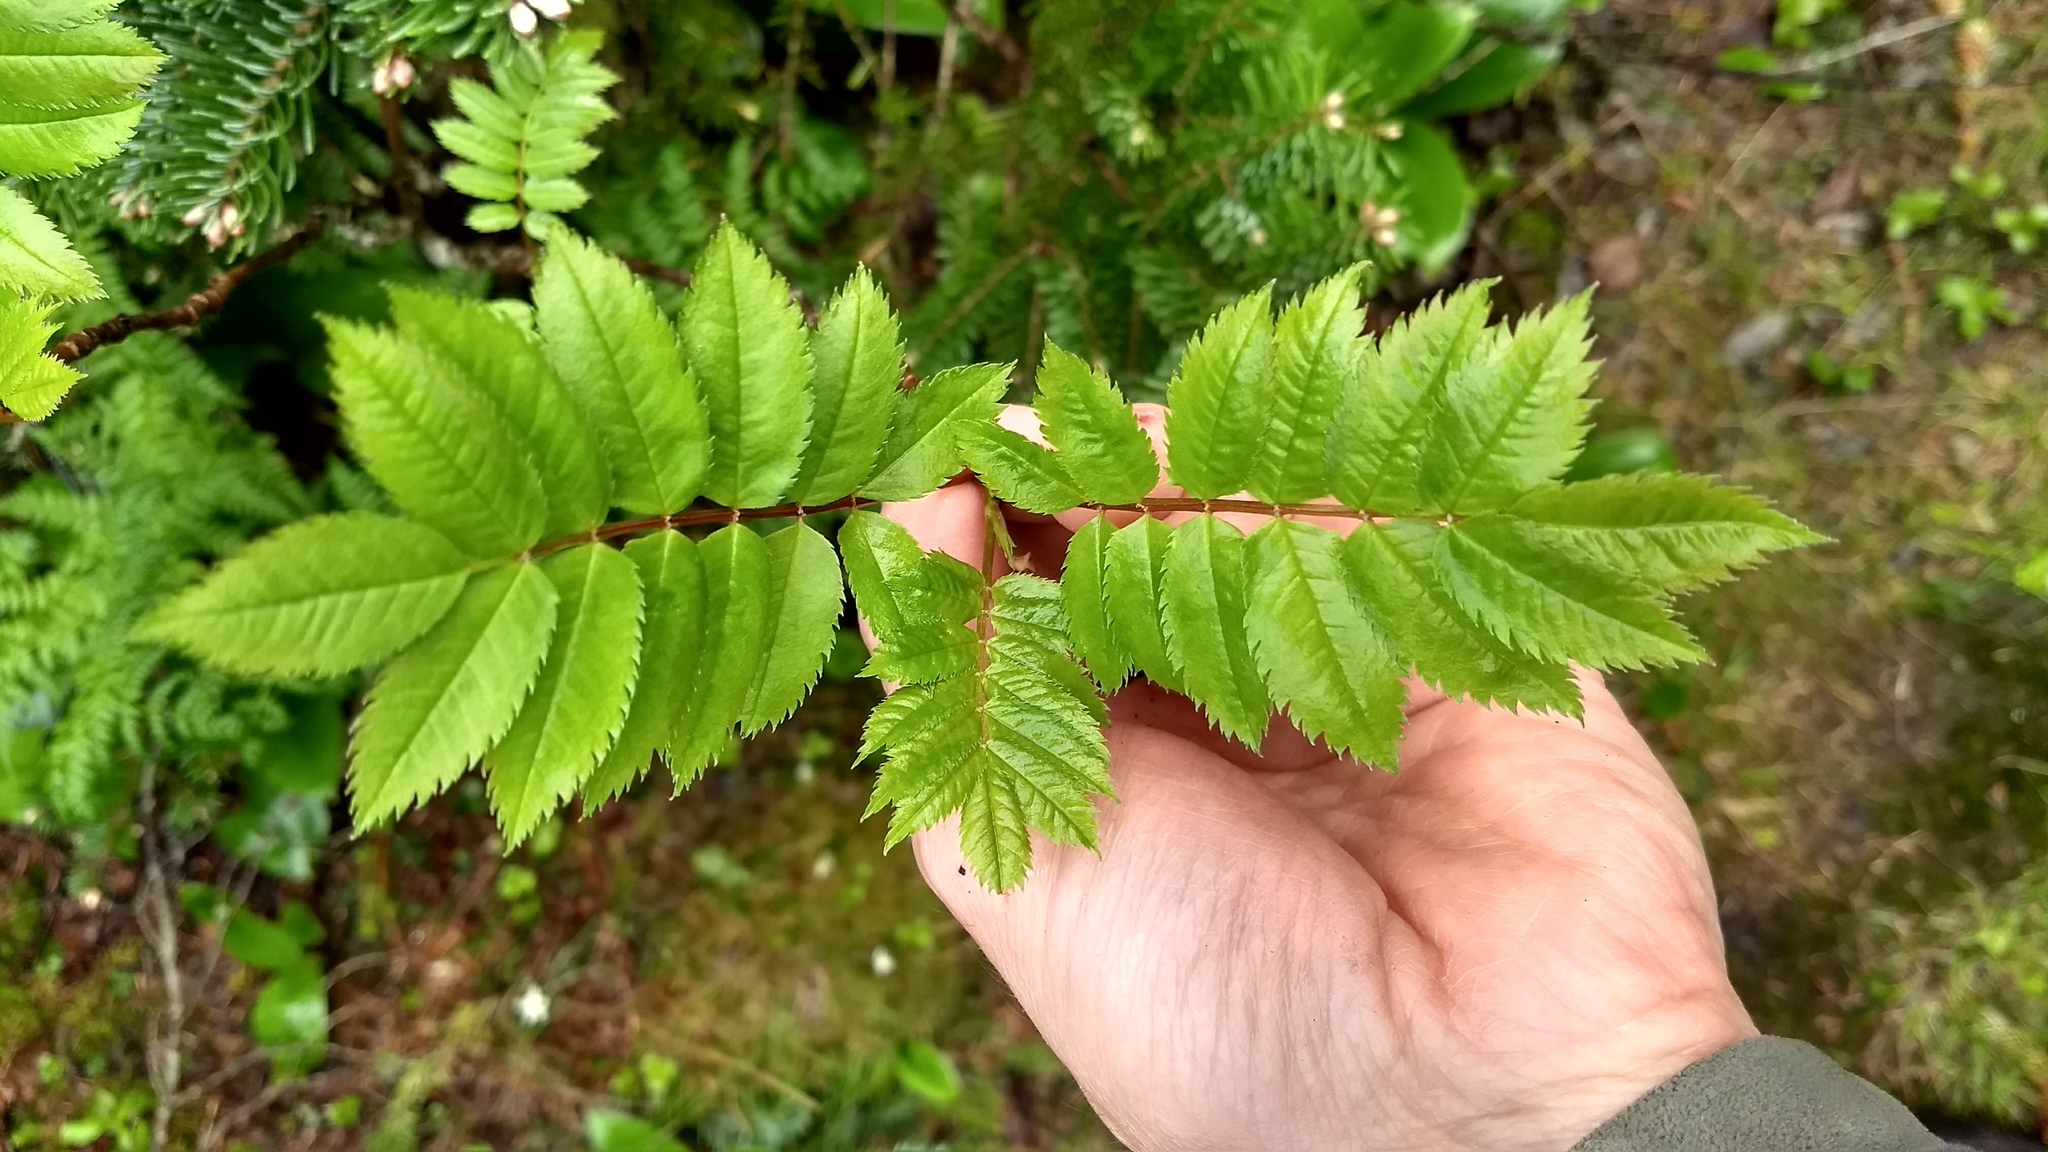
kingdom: Plantae
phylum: Tracheophyta
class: Magnoliopsida
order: Rosales
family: Rosaceae
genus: Sorbus
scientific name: Sorbus decora
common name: Northern mountain-ash
